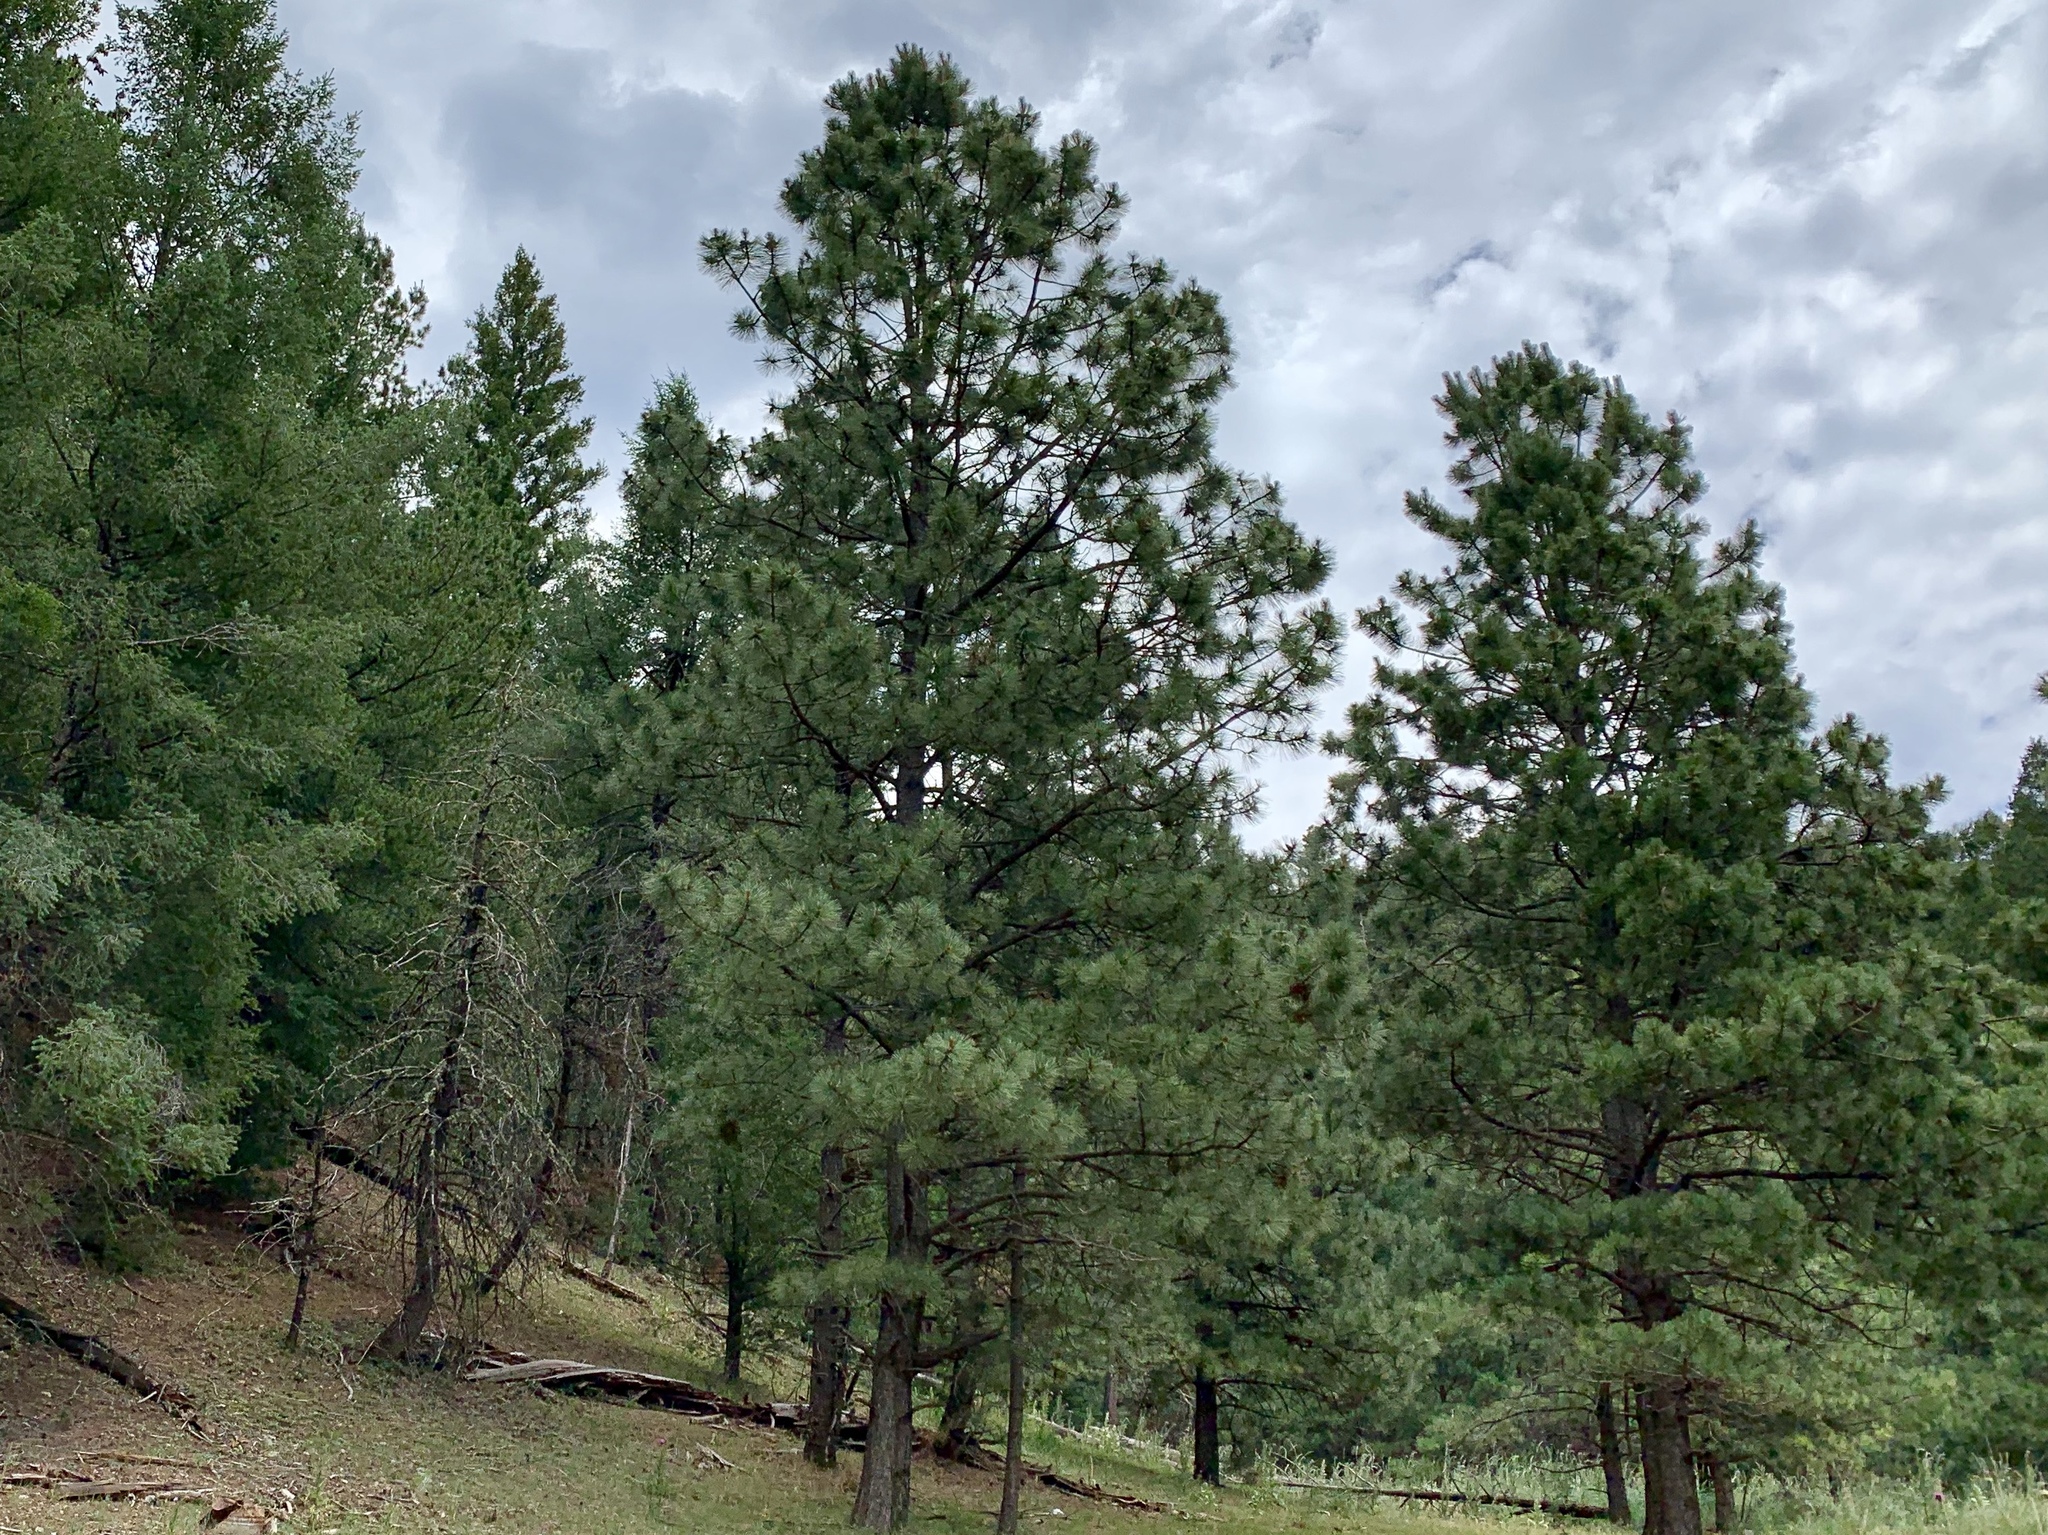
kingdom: Plantae
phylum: Tracheophyta
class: Pinopsida
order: Pinales
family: Pinaceae
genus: Pinus
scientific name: Pinus ponderosa
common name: Western yellow-pine
